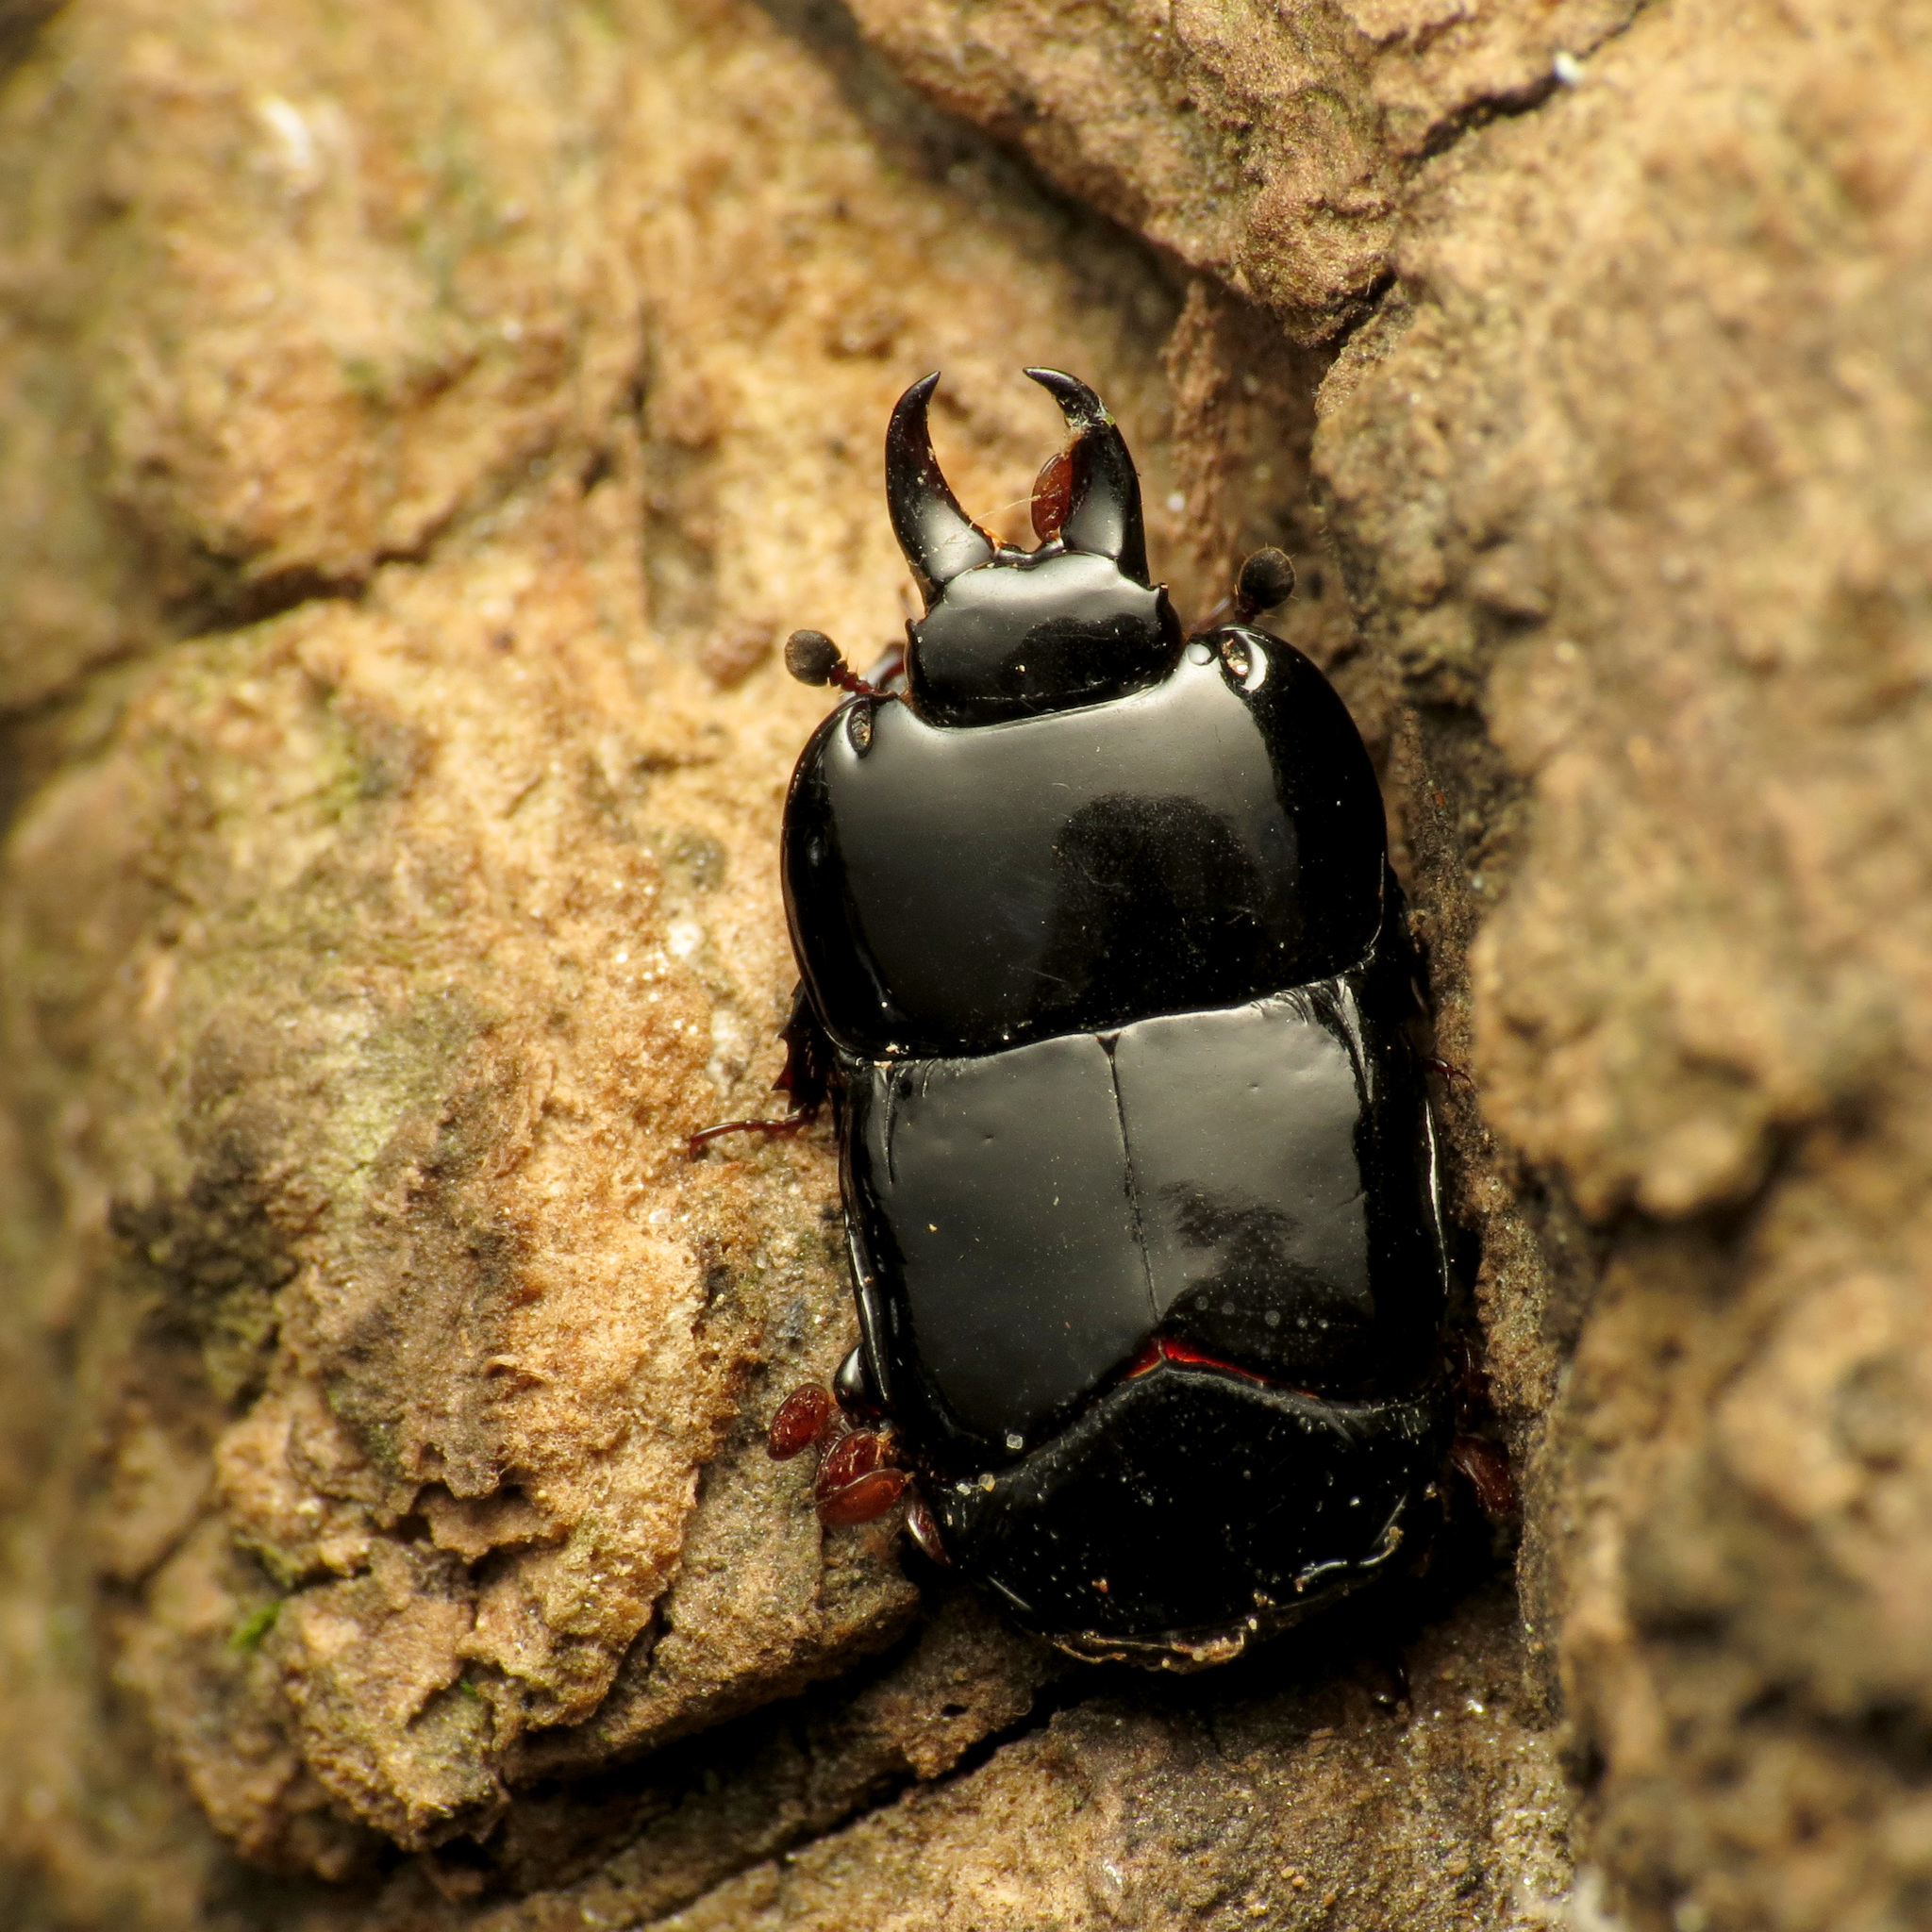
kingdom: Animalia
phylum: Arthropoda
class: Insecta
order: Coleoptera
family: Histeridae
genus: Hololepta
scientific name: Hololepta aequalis
